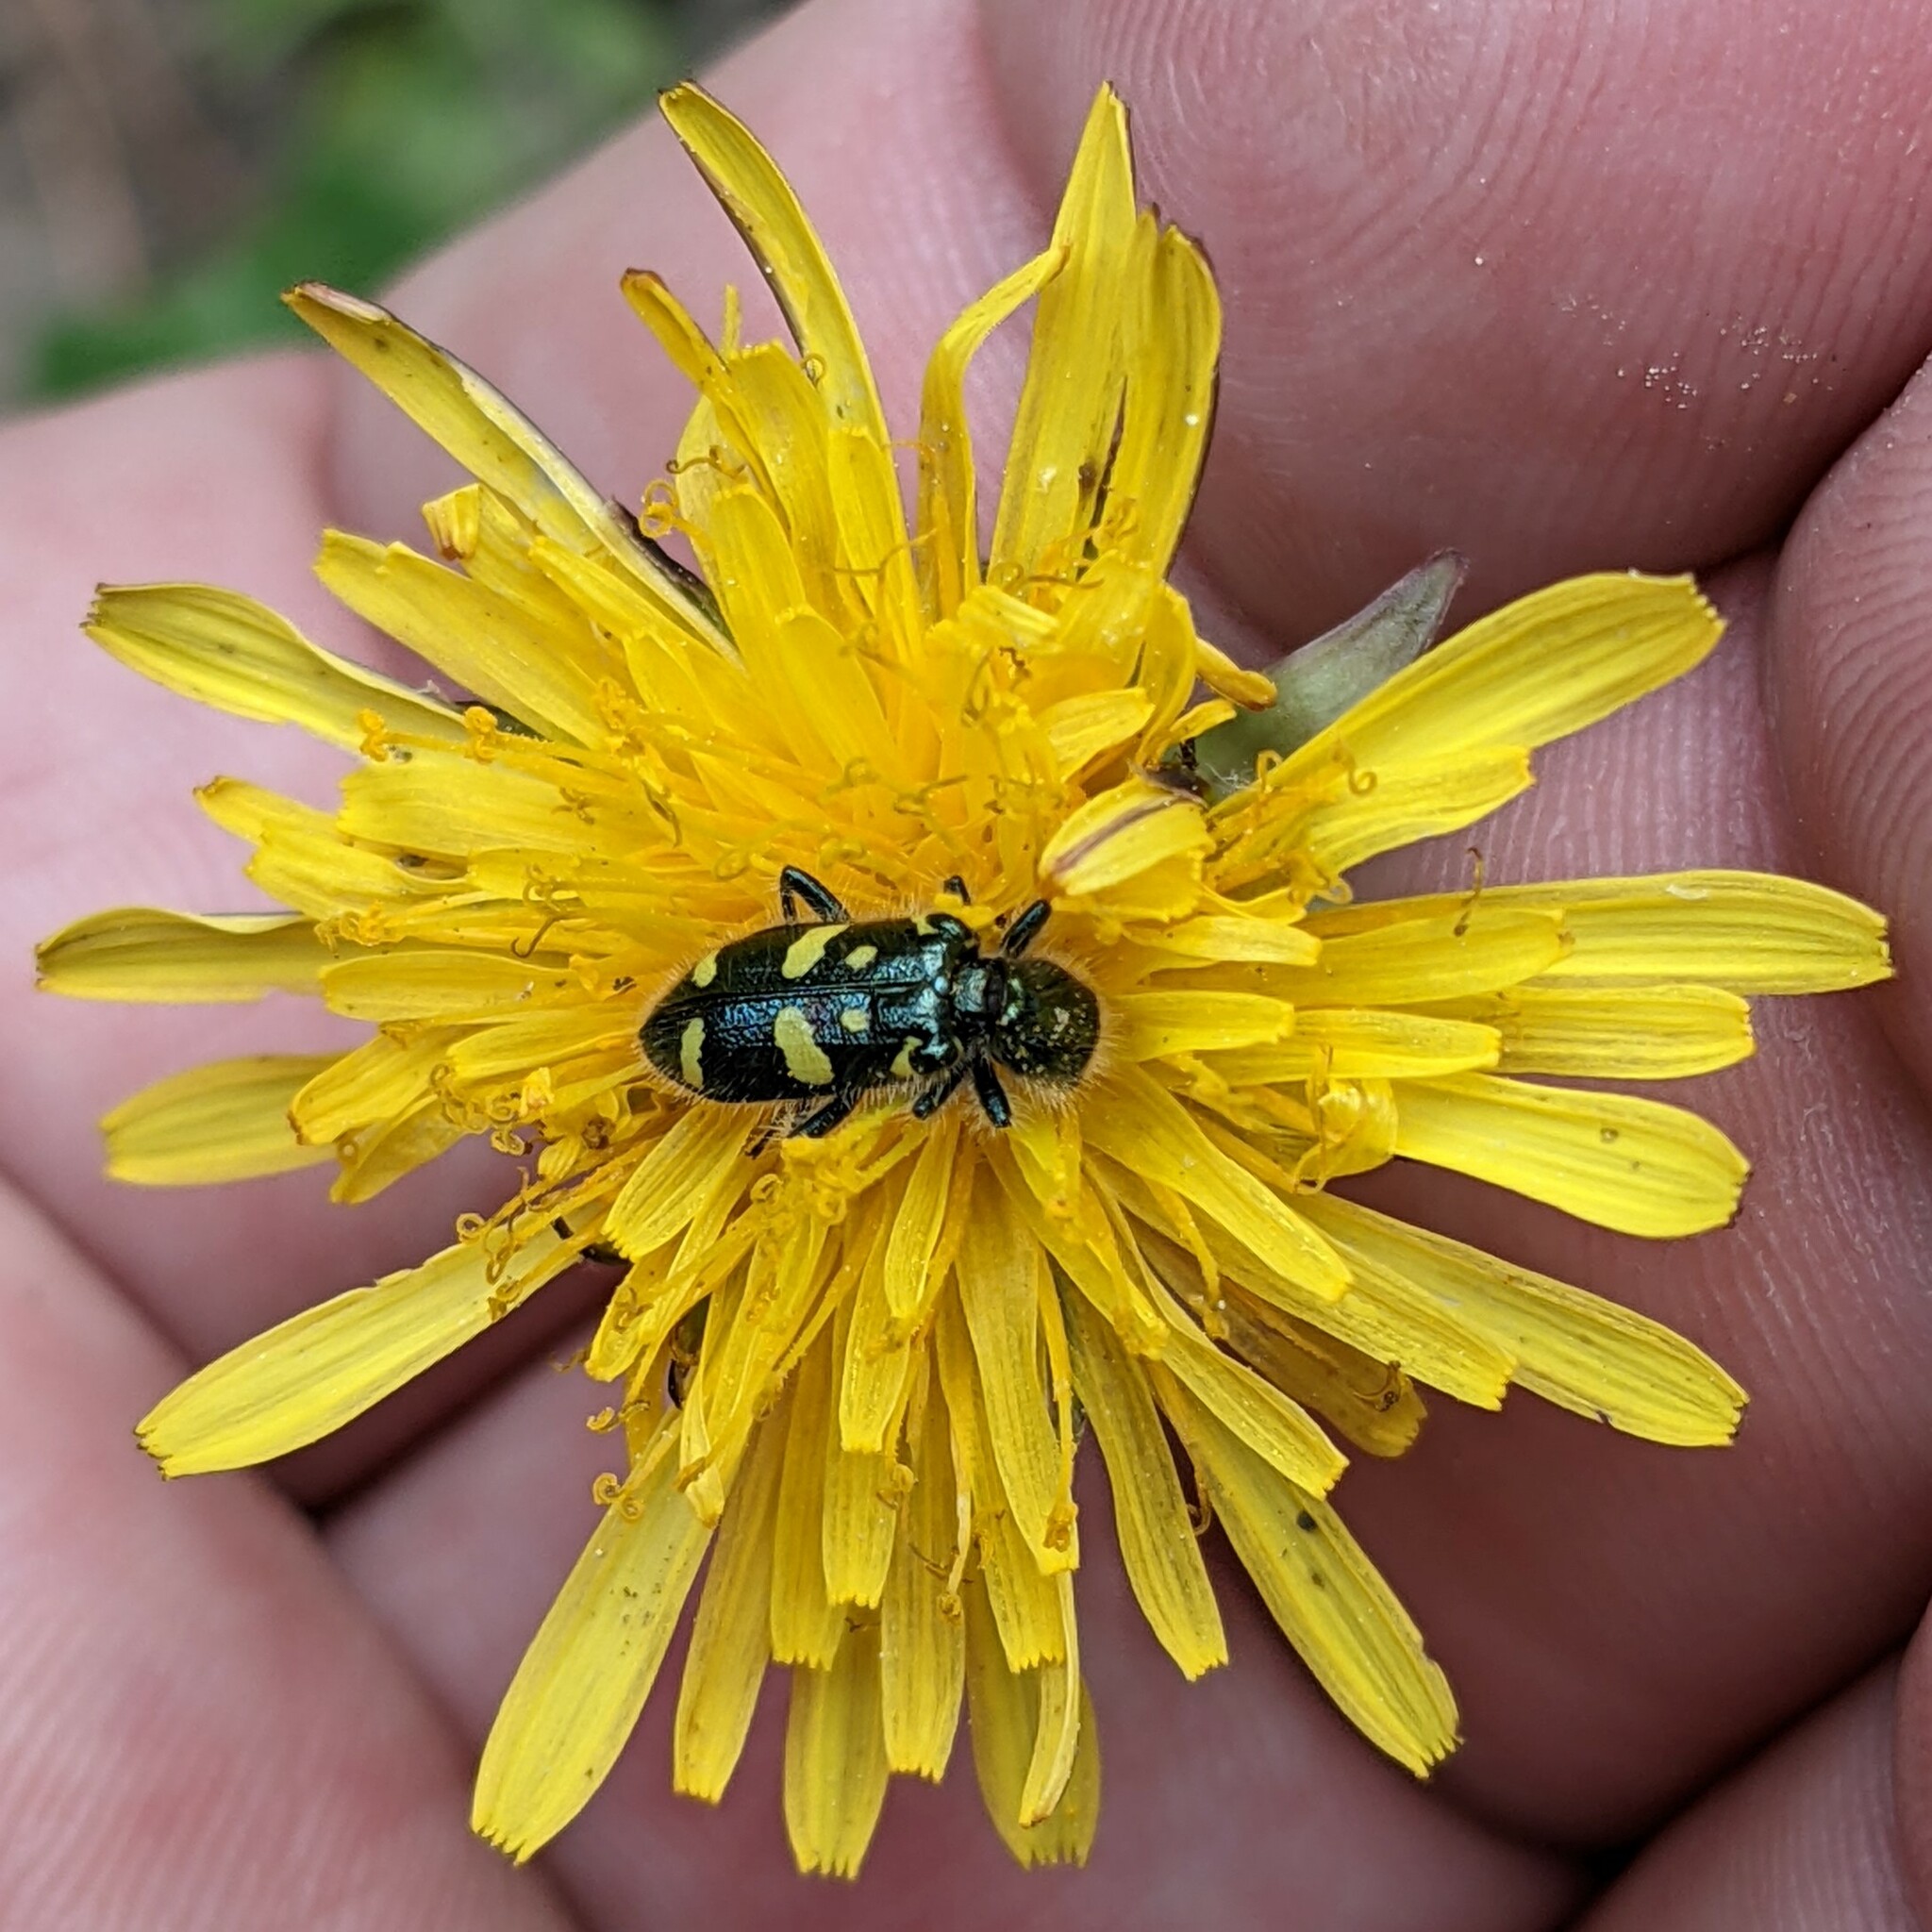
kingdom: Animalia
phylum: Arthropoda
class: Insecta
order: Coleoptera
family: Cleridae
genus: Trichodes
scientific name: Trichodes ornatus
